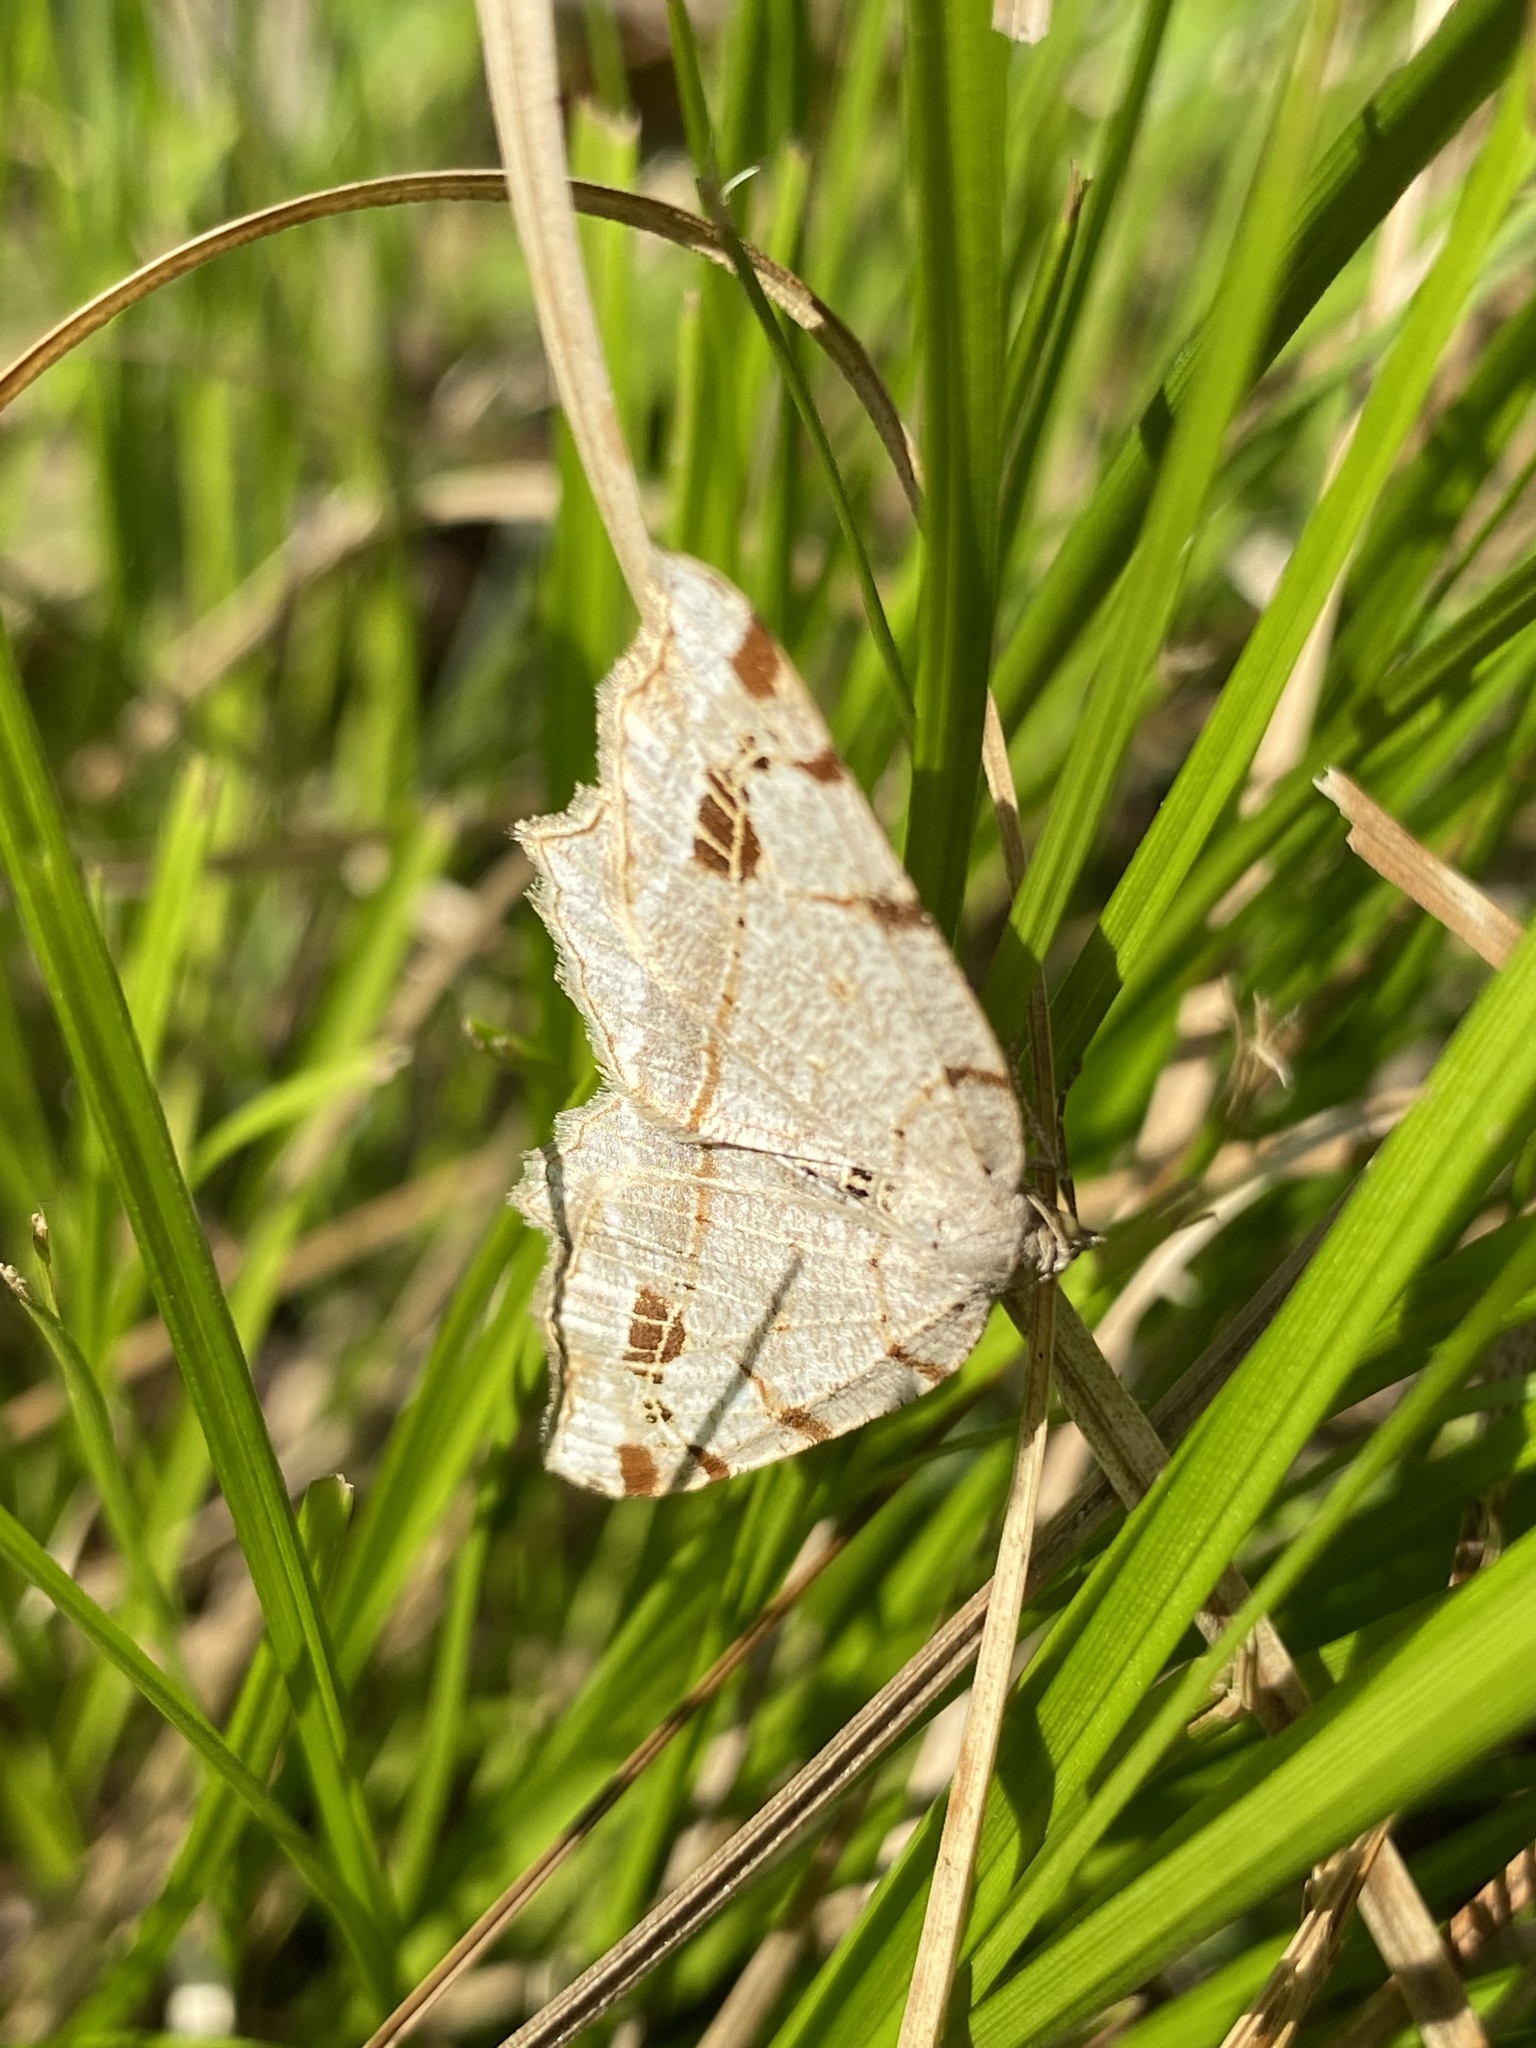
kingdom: Animalia
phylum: Arthropoda
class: Insecta
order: Lepidoptera
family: Geometridae
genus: Oxymacaria
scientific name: Oxymacaria normata
